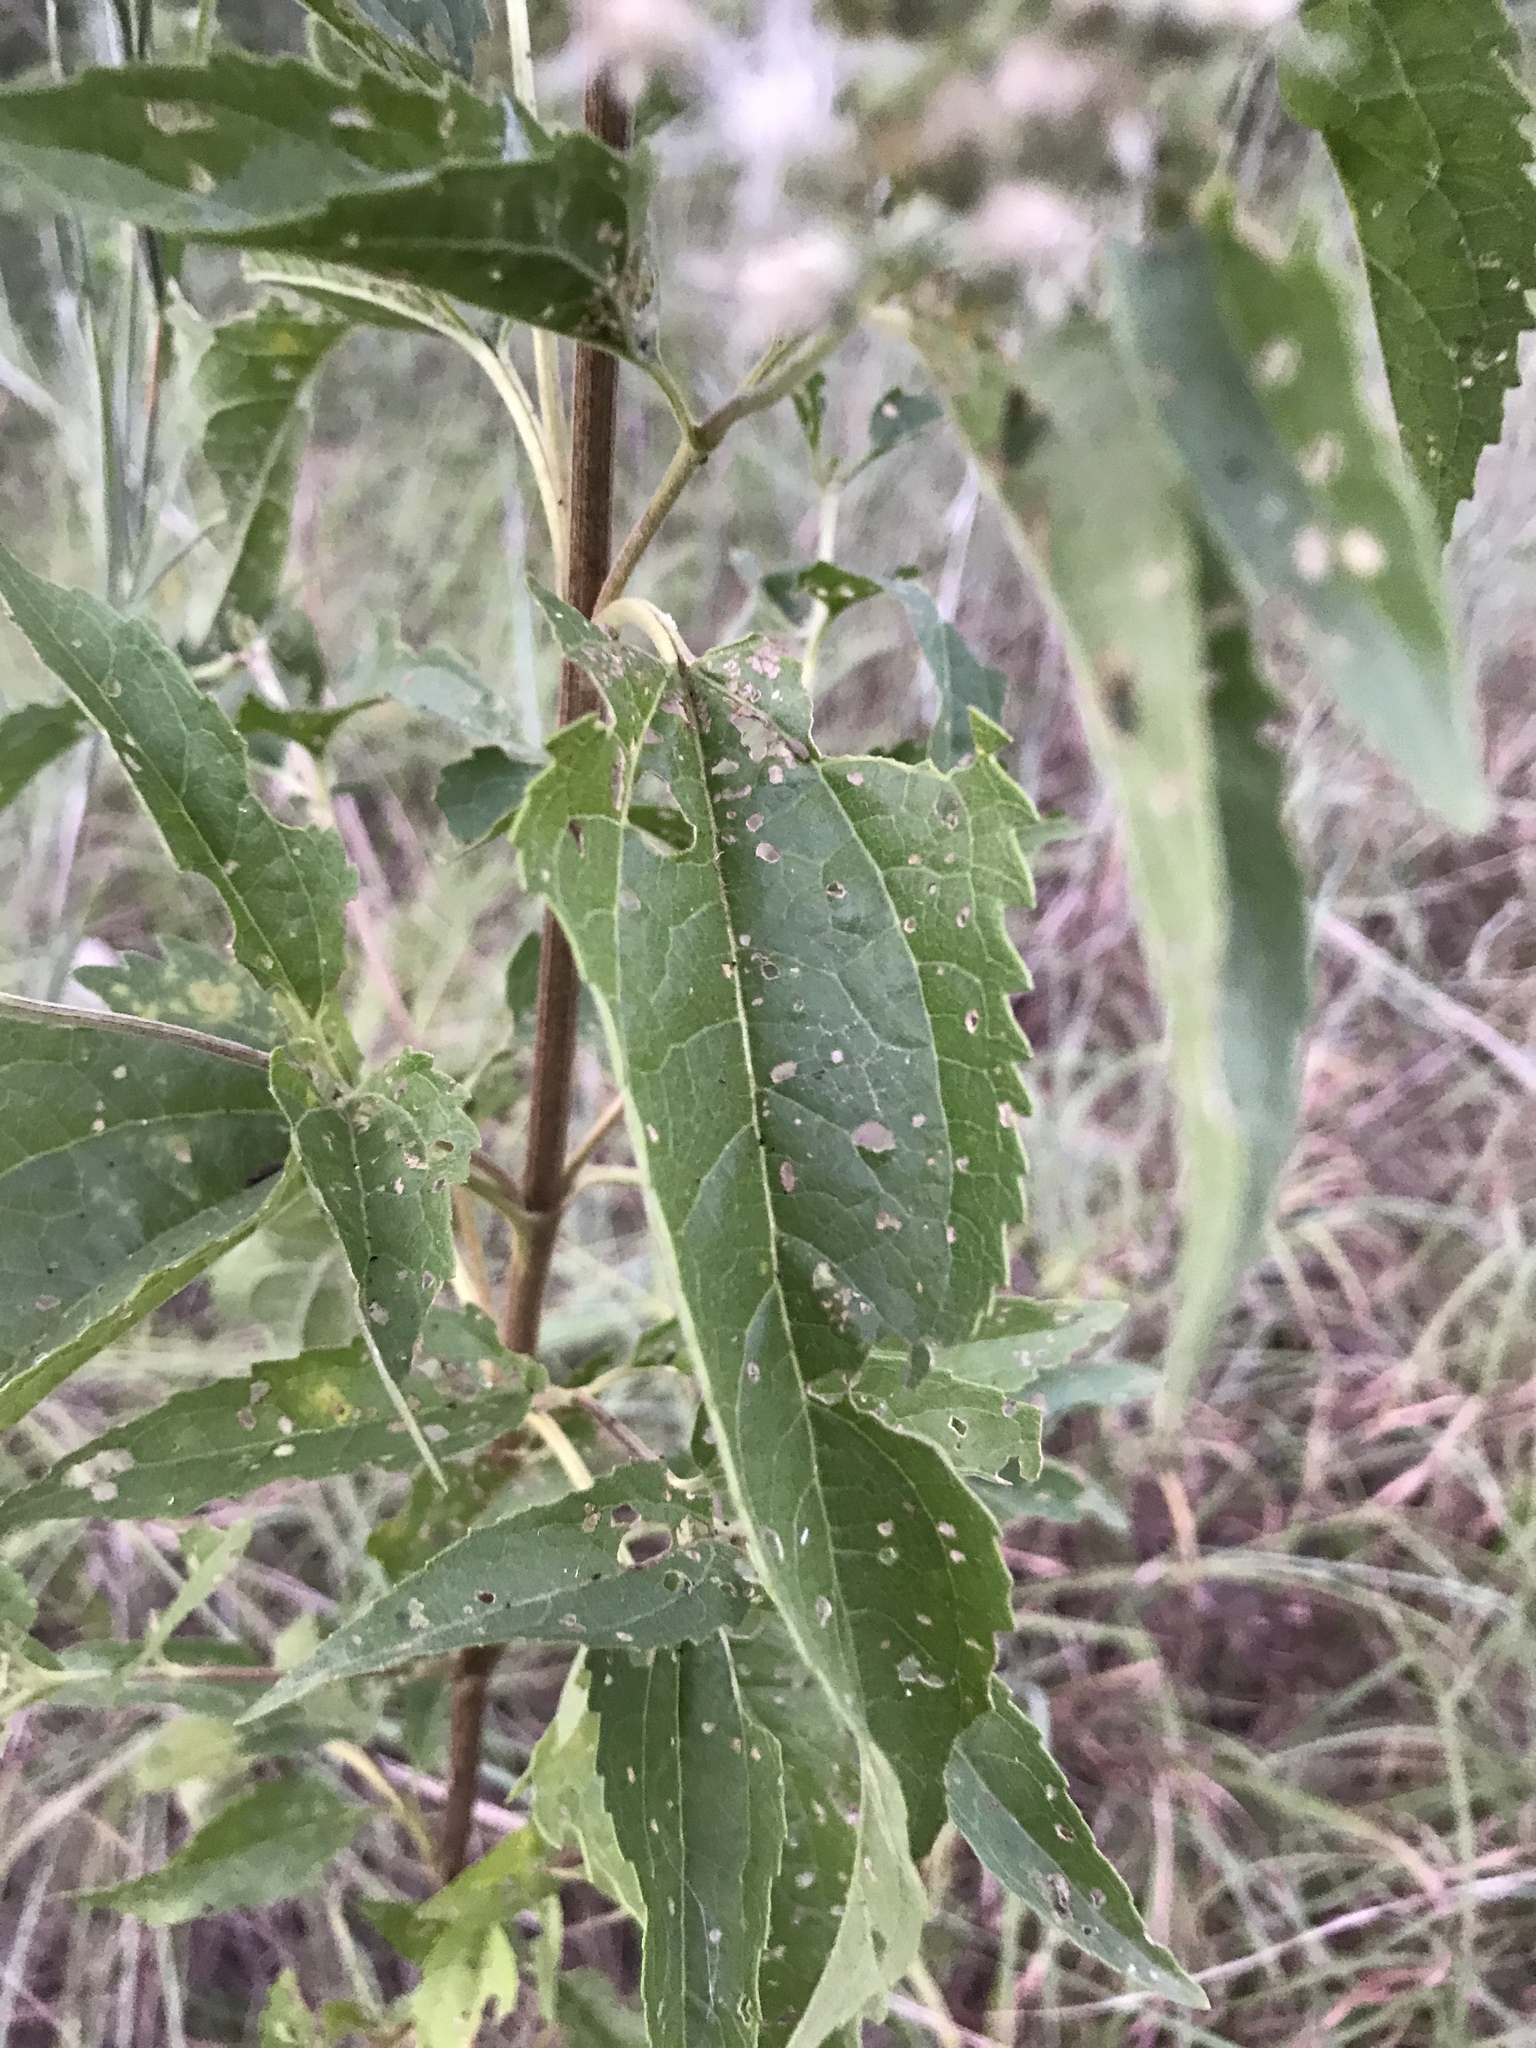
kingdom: Plantae
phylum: Tracheophyta
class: Magnoliopsida
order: Asterales
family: Asteraceae
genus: Eupatorium
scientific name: Eupatorium serotinum
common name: Late boneset
